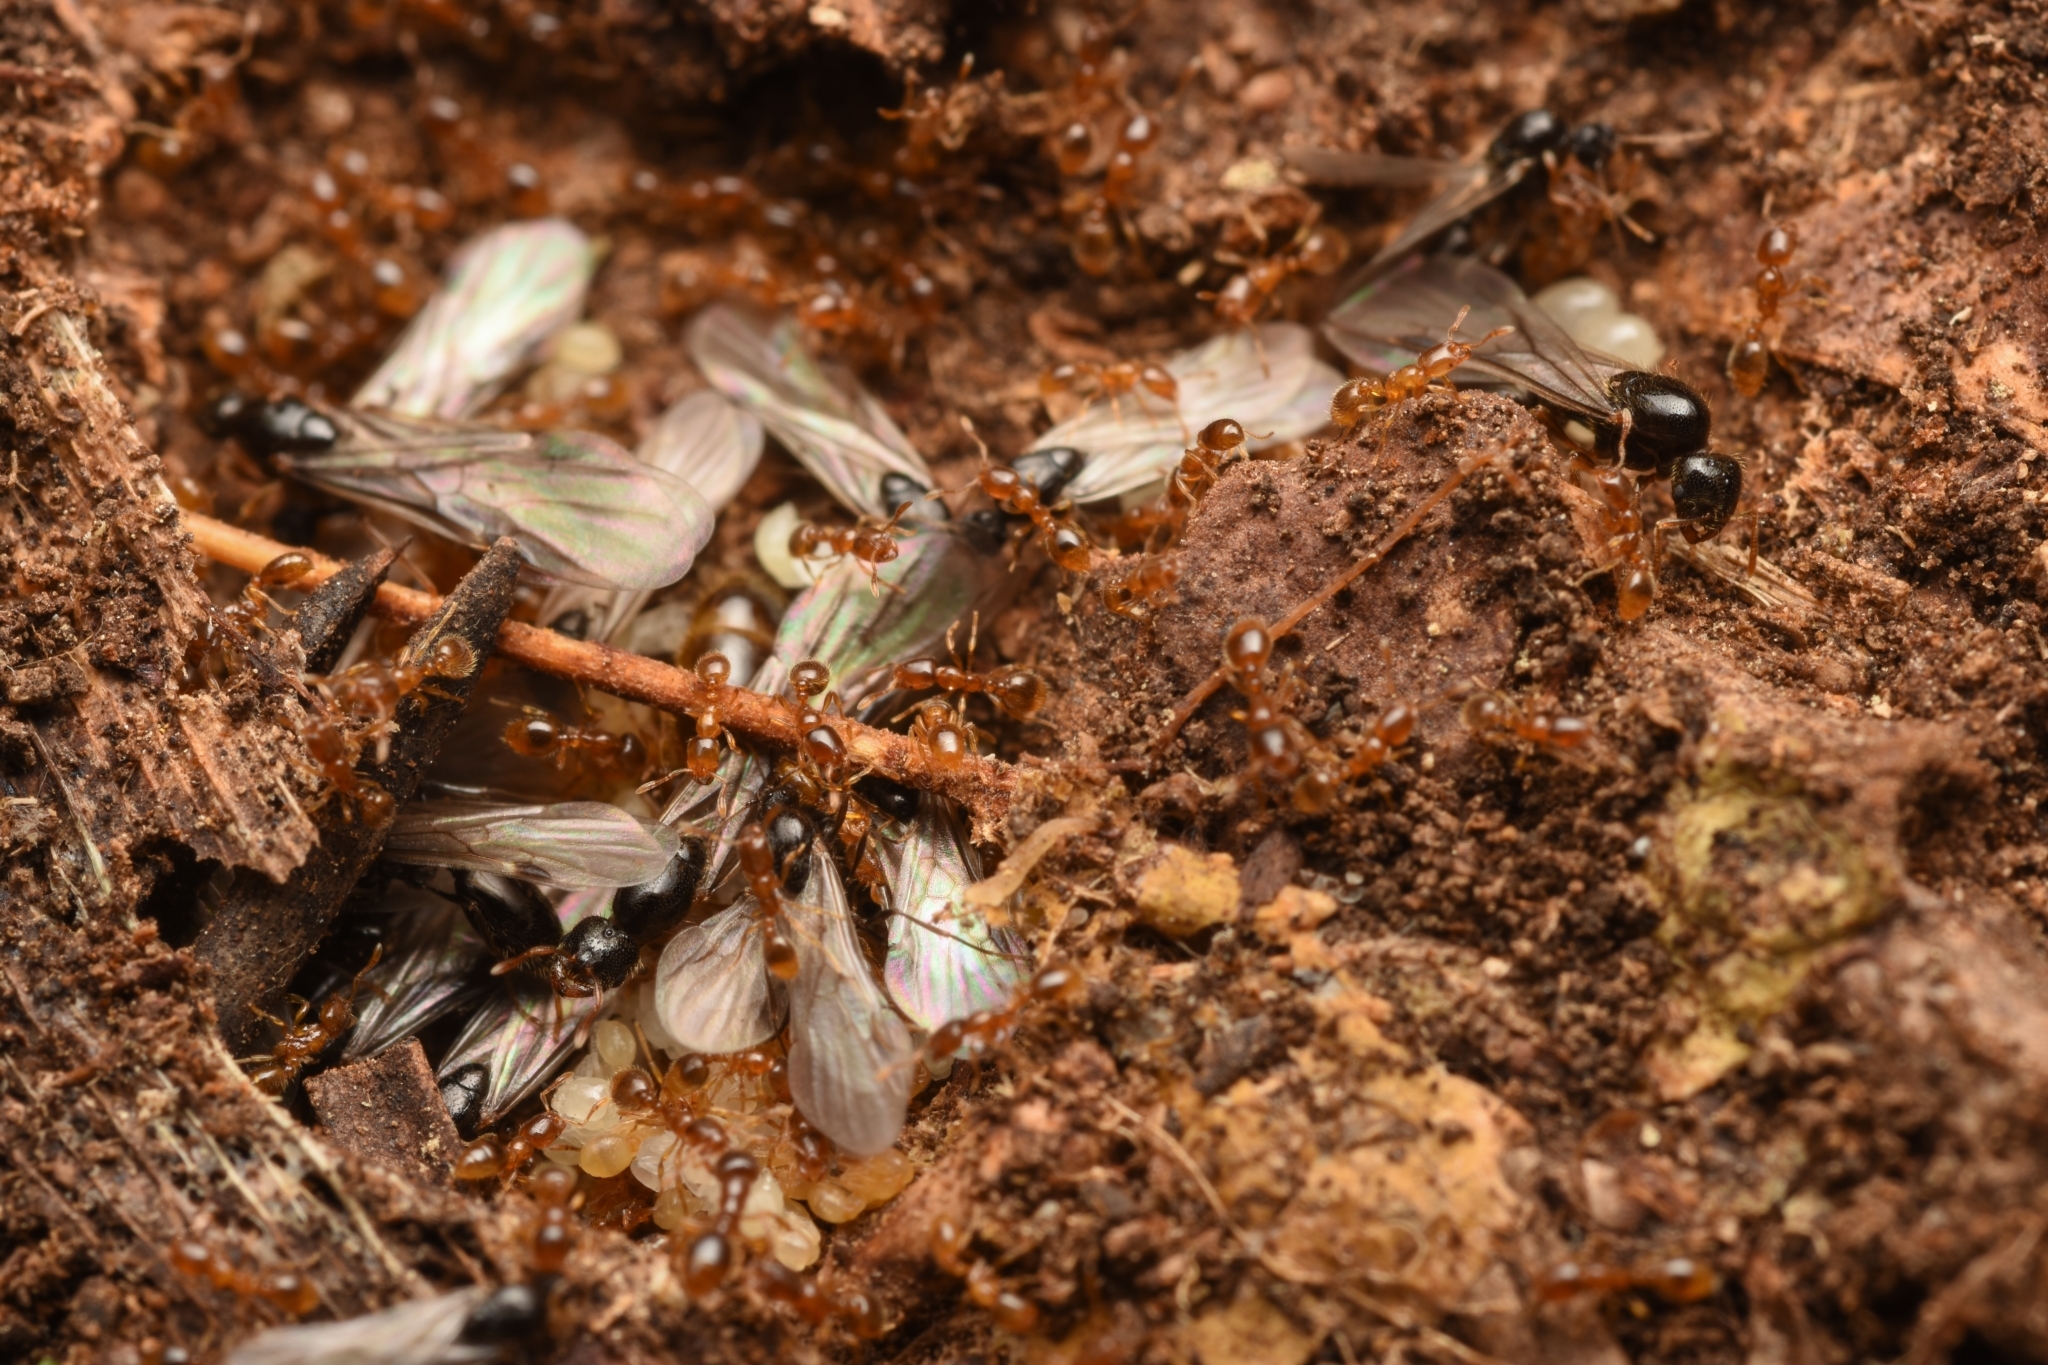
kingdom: Animalia
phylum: Arthropoda
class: Insecta
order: Hymenoptera
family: Formicidae
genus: Solenopsis
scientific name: Solenopsis japonica
